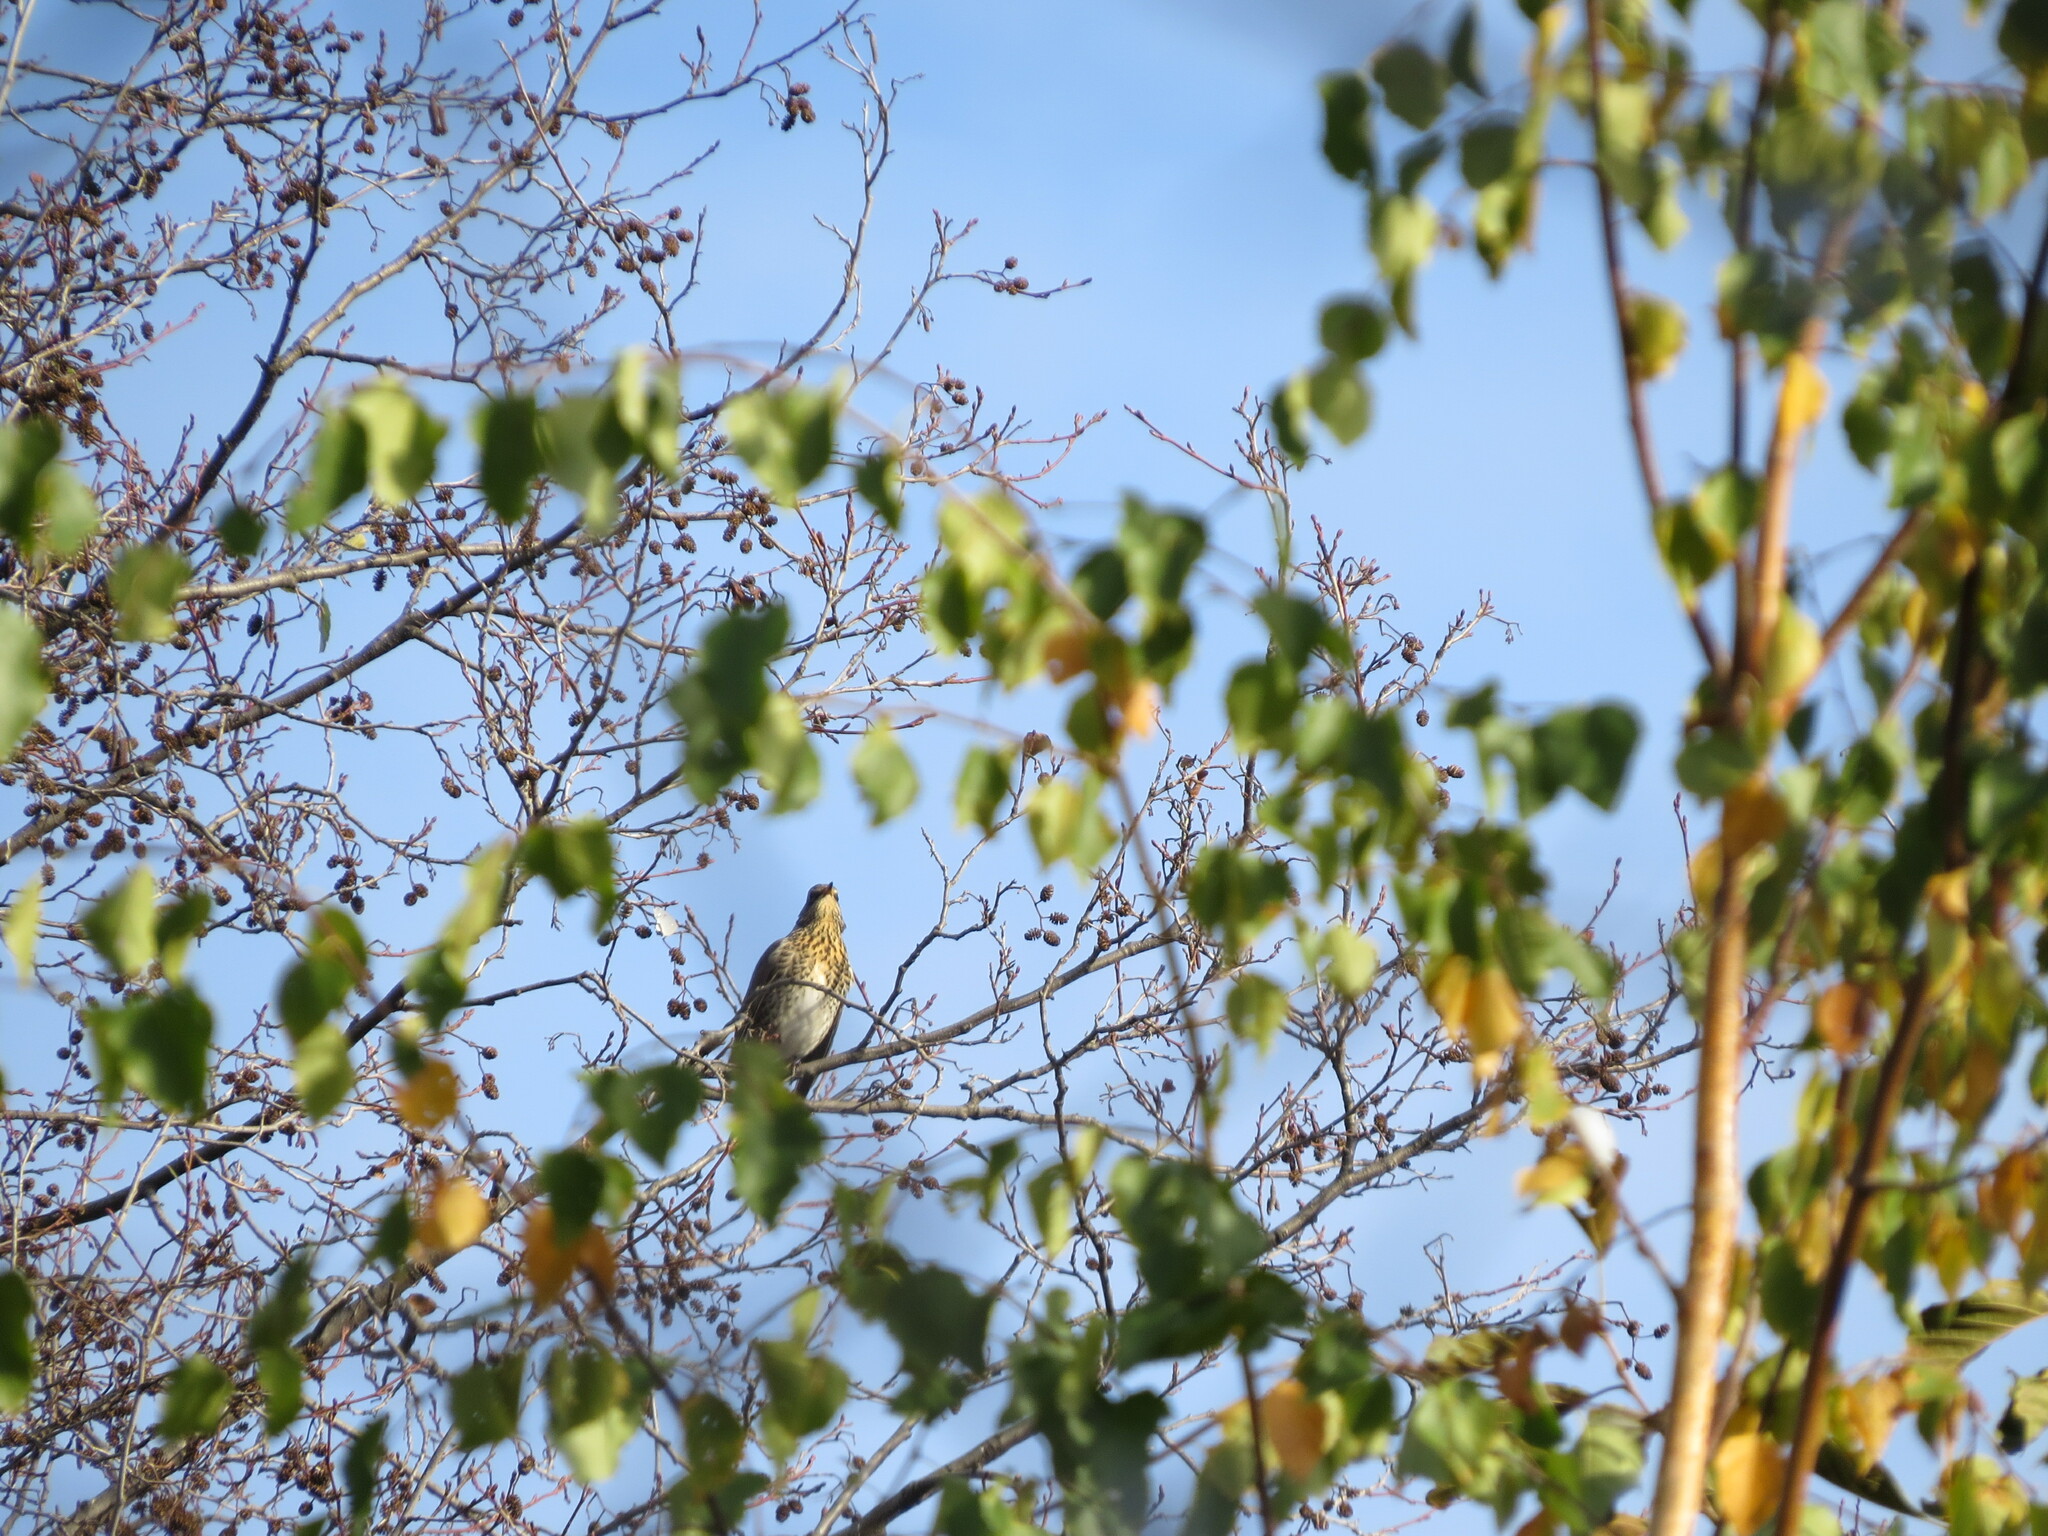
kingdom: Animalia
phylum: Chordata
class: Aves
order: Passeriformes
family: Turdidae
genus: Turdus
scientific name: Turdus pilaris
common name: Fieldfare
